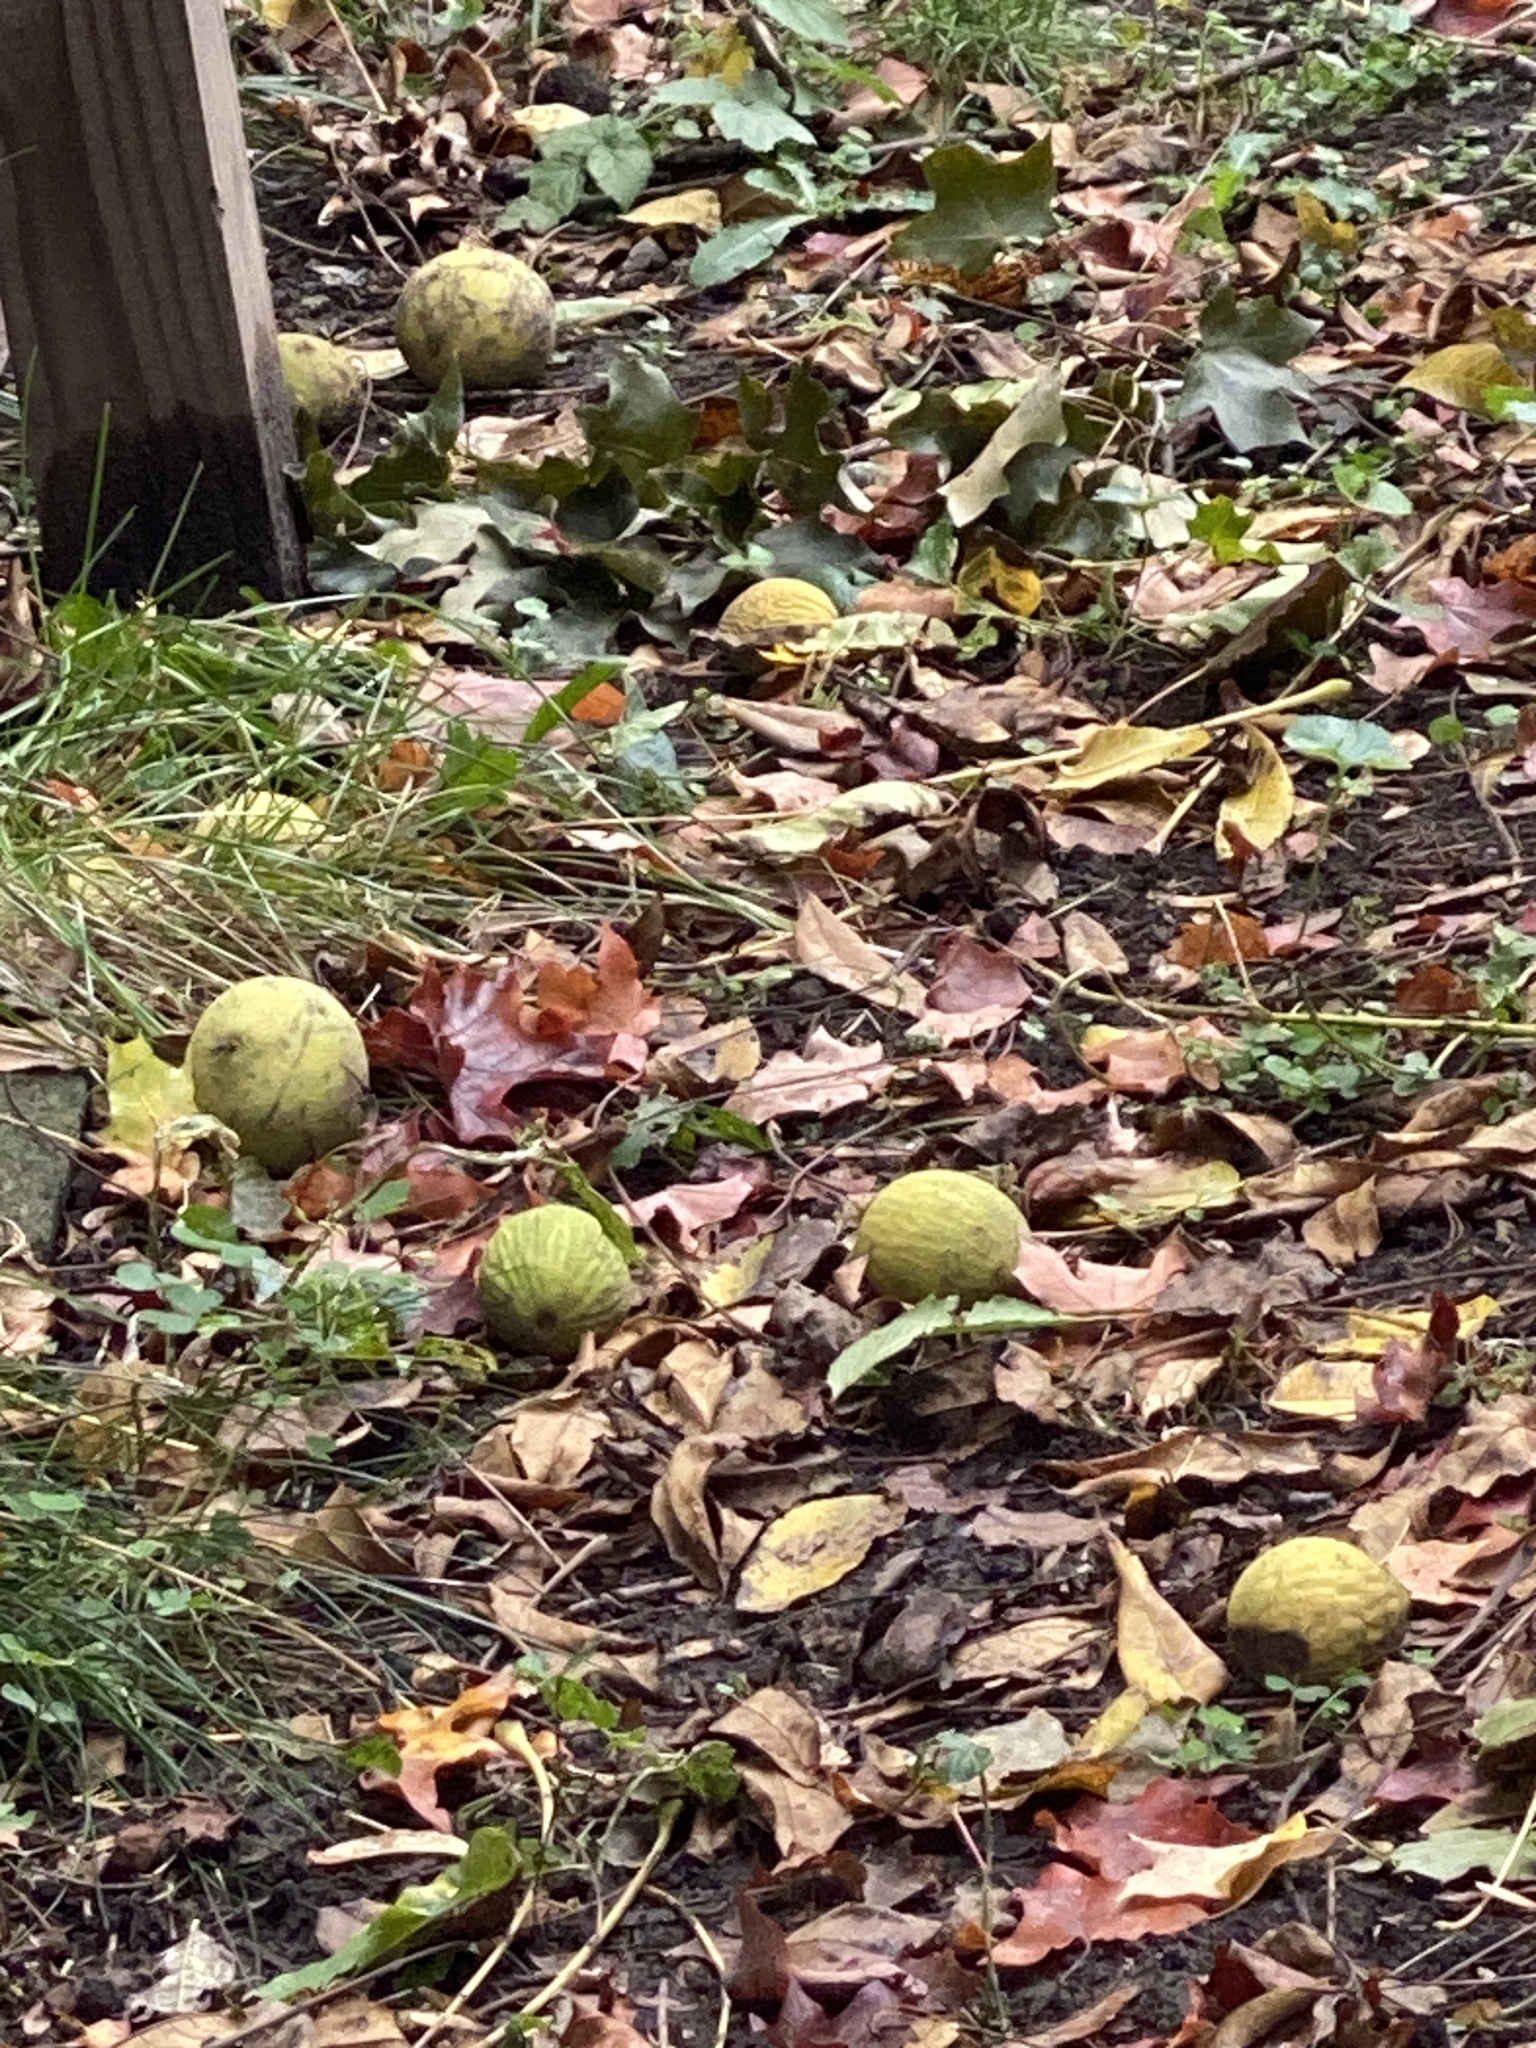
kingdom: Plantae
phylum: Tracheophyta
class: Magnoliopsida
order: Fagales
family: Juglandaceae
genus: Juglans
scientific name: Juglans nigra
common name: Black walnut
